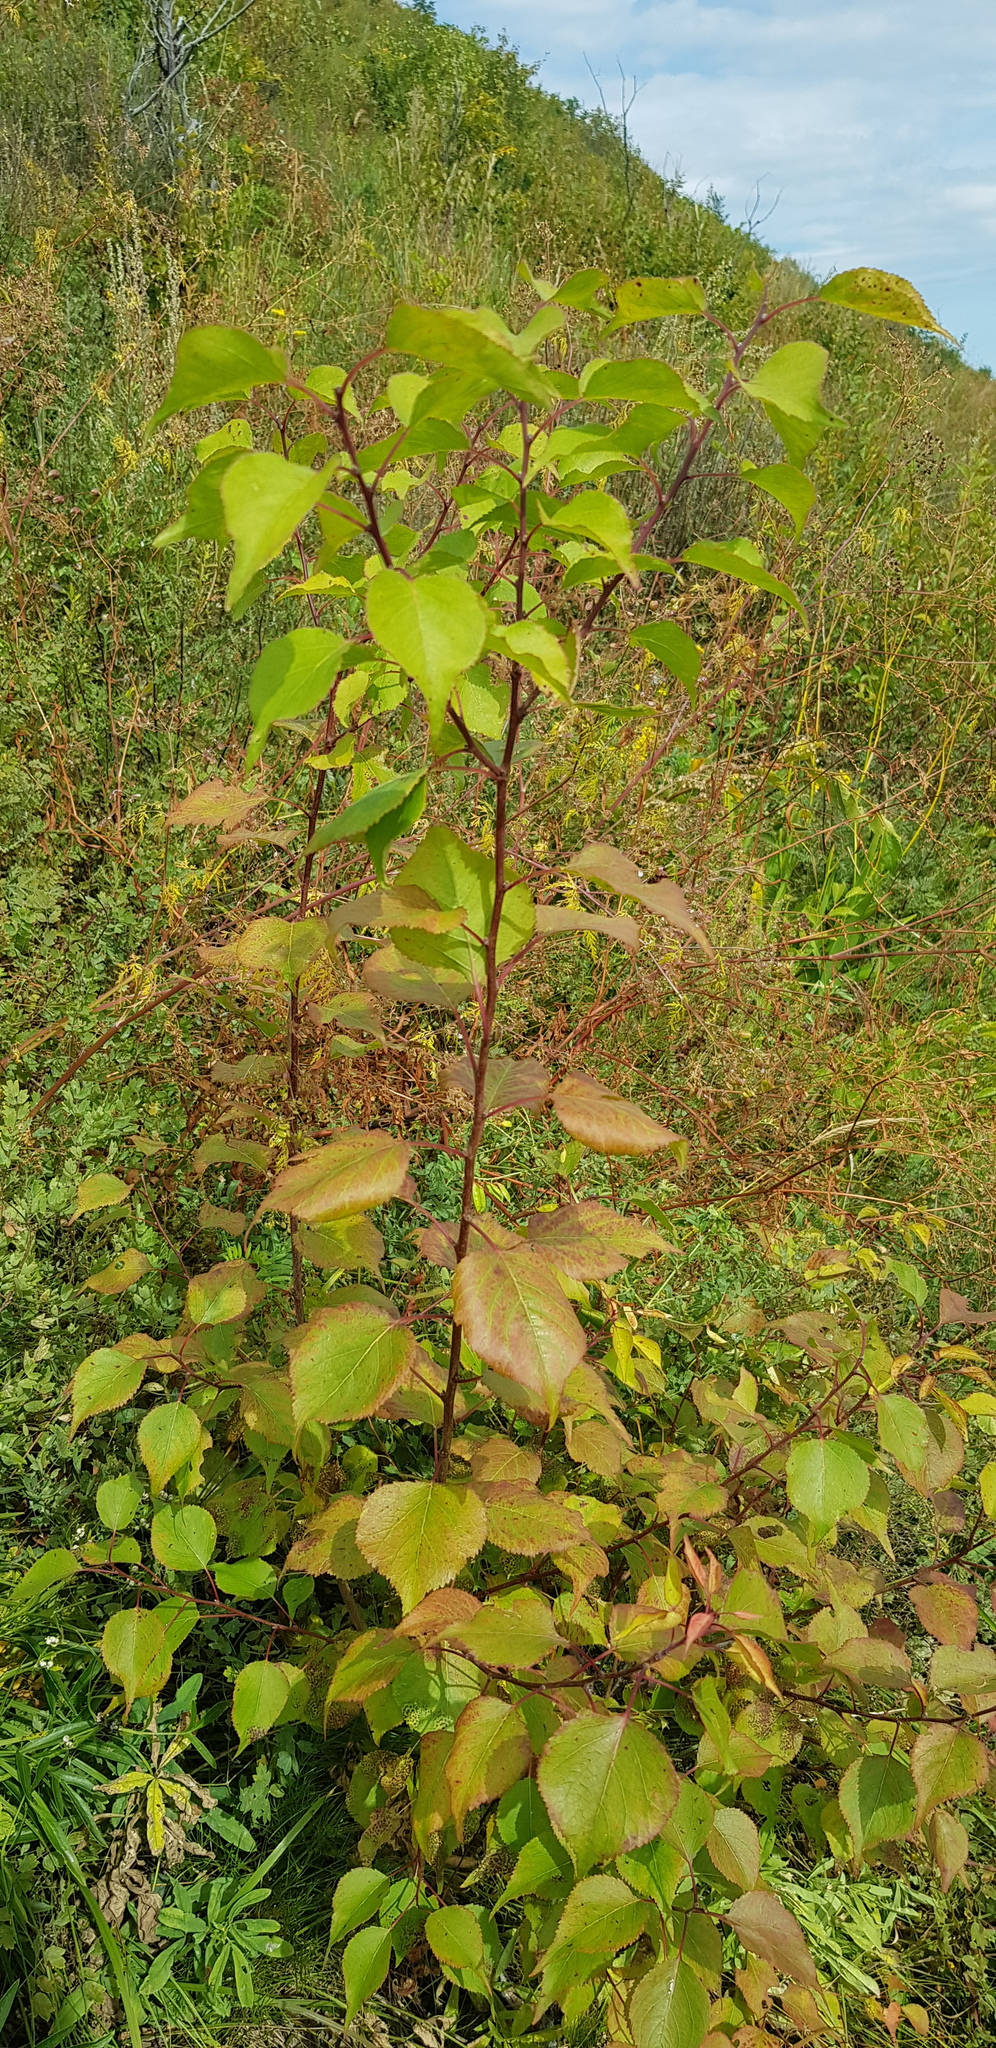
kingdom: Plantae
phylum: Tracheophyta
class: Magnoliopsida
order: Rosales
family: Rosaceae
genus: Malus
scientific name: Malus baccata
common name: Siberian crab
